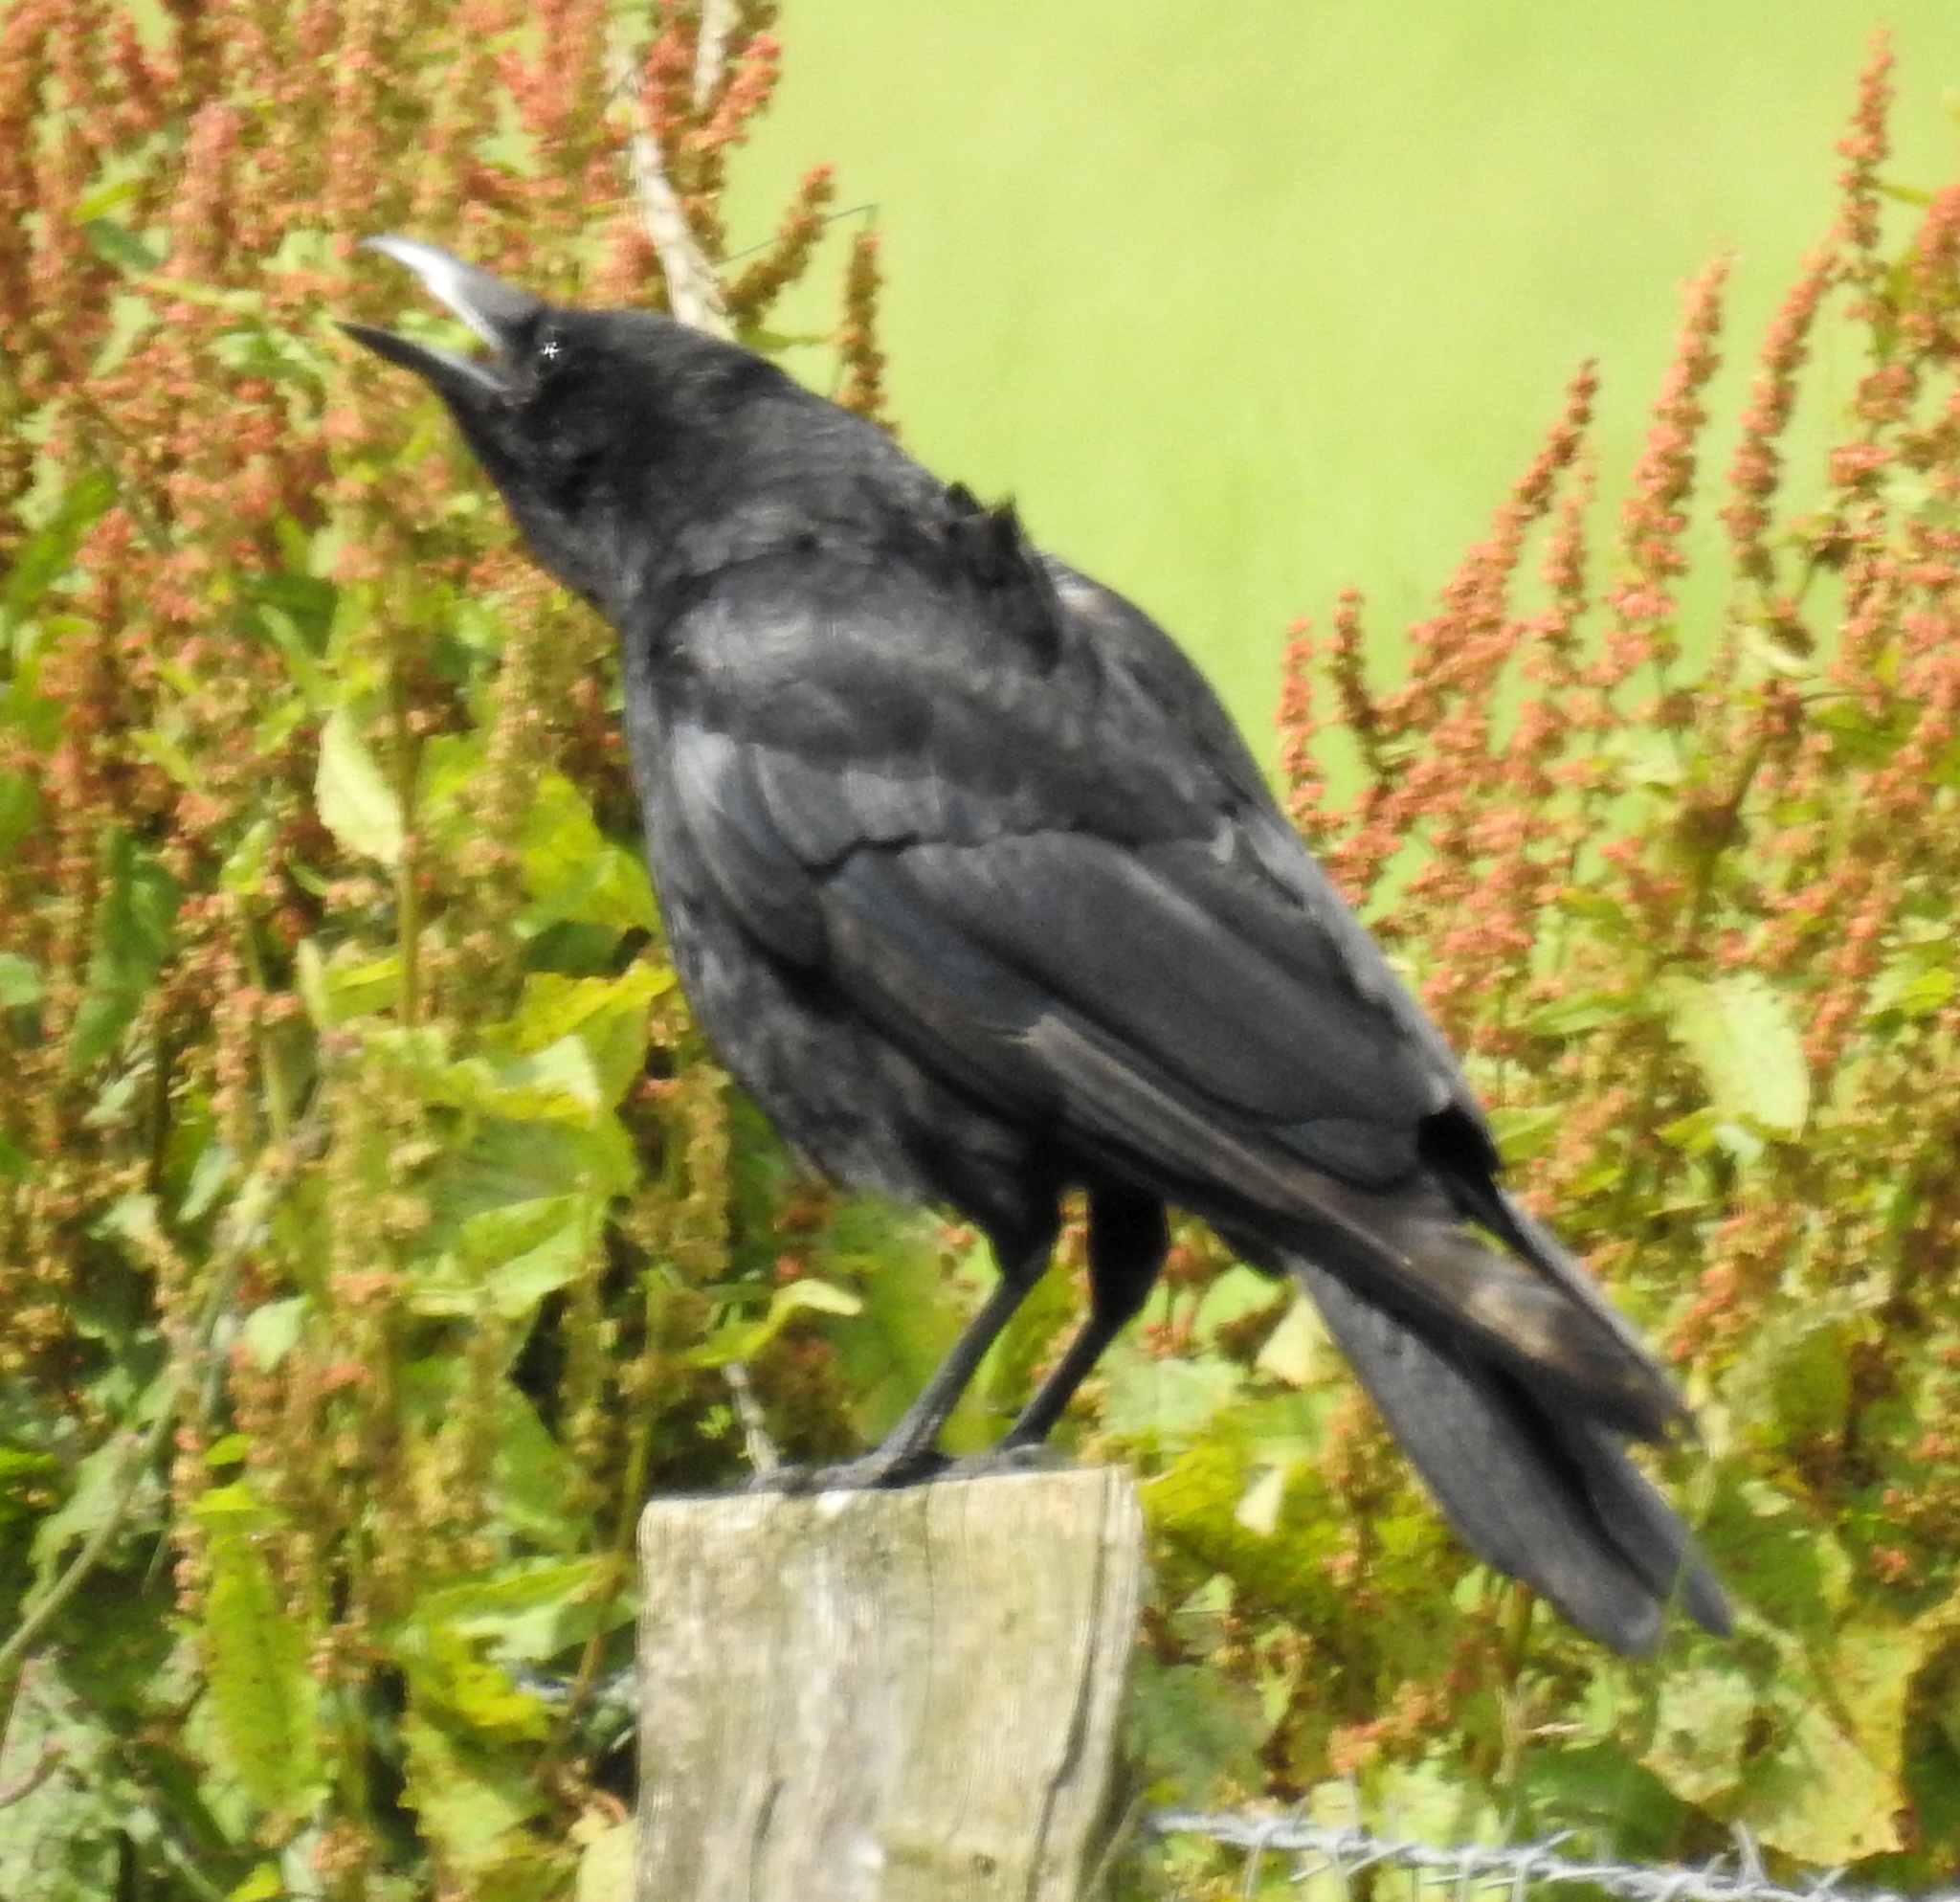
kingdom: Animalia
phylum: Chordata
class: Aves
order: Passeriformes
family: Corvidae
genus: Corvus
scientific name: Corvus corone
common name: Carrion crow
